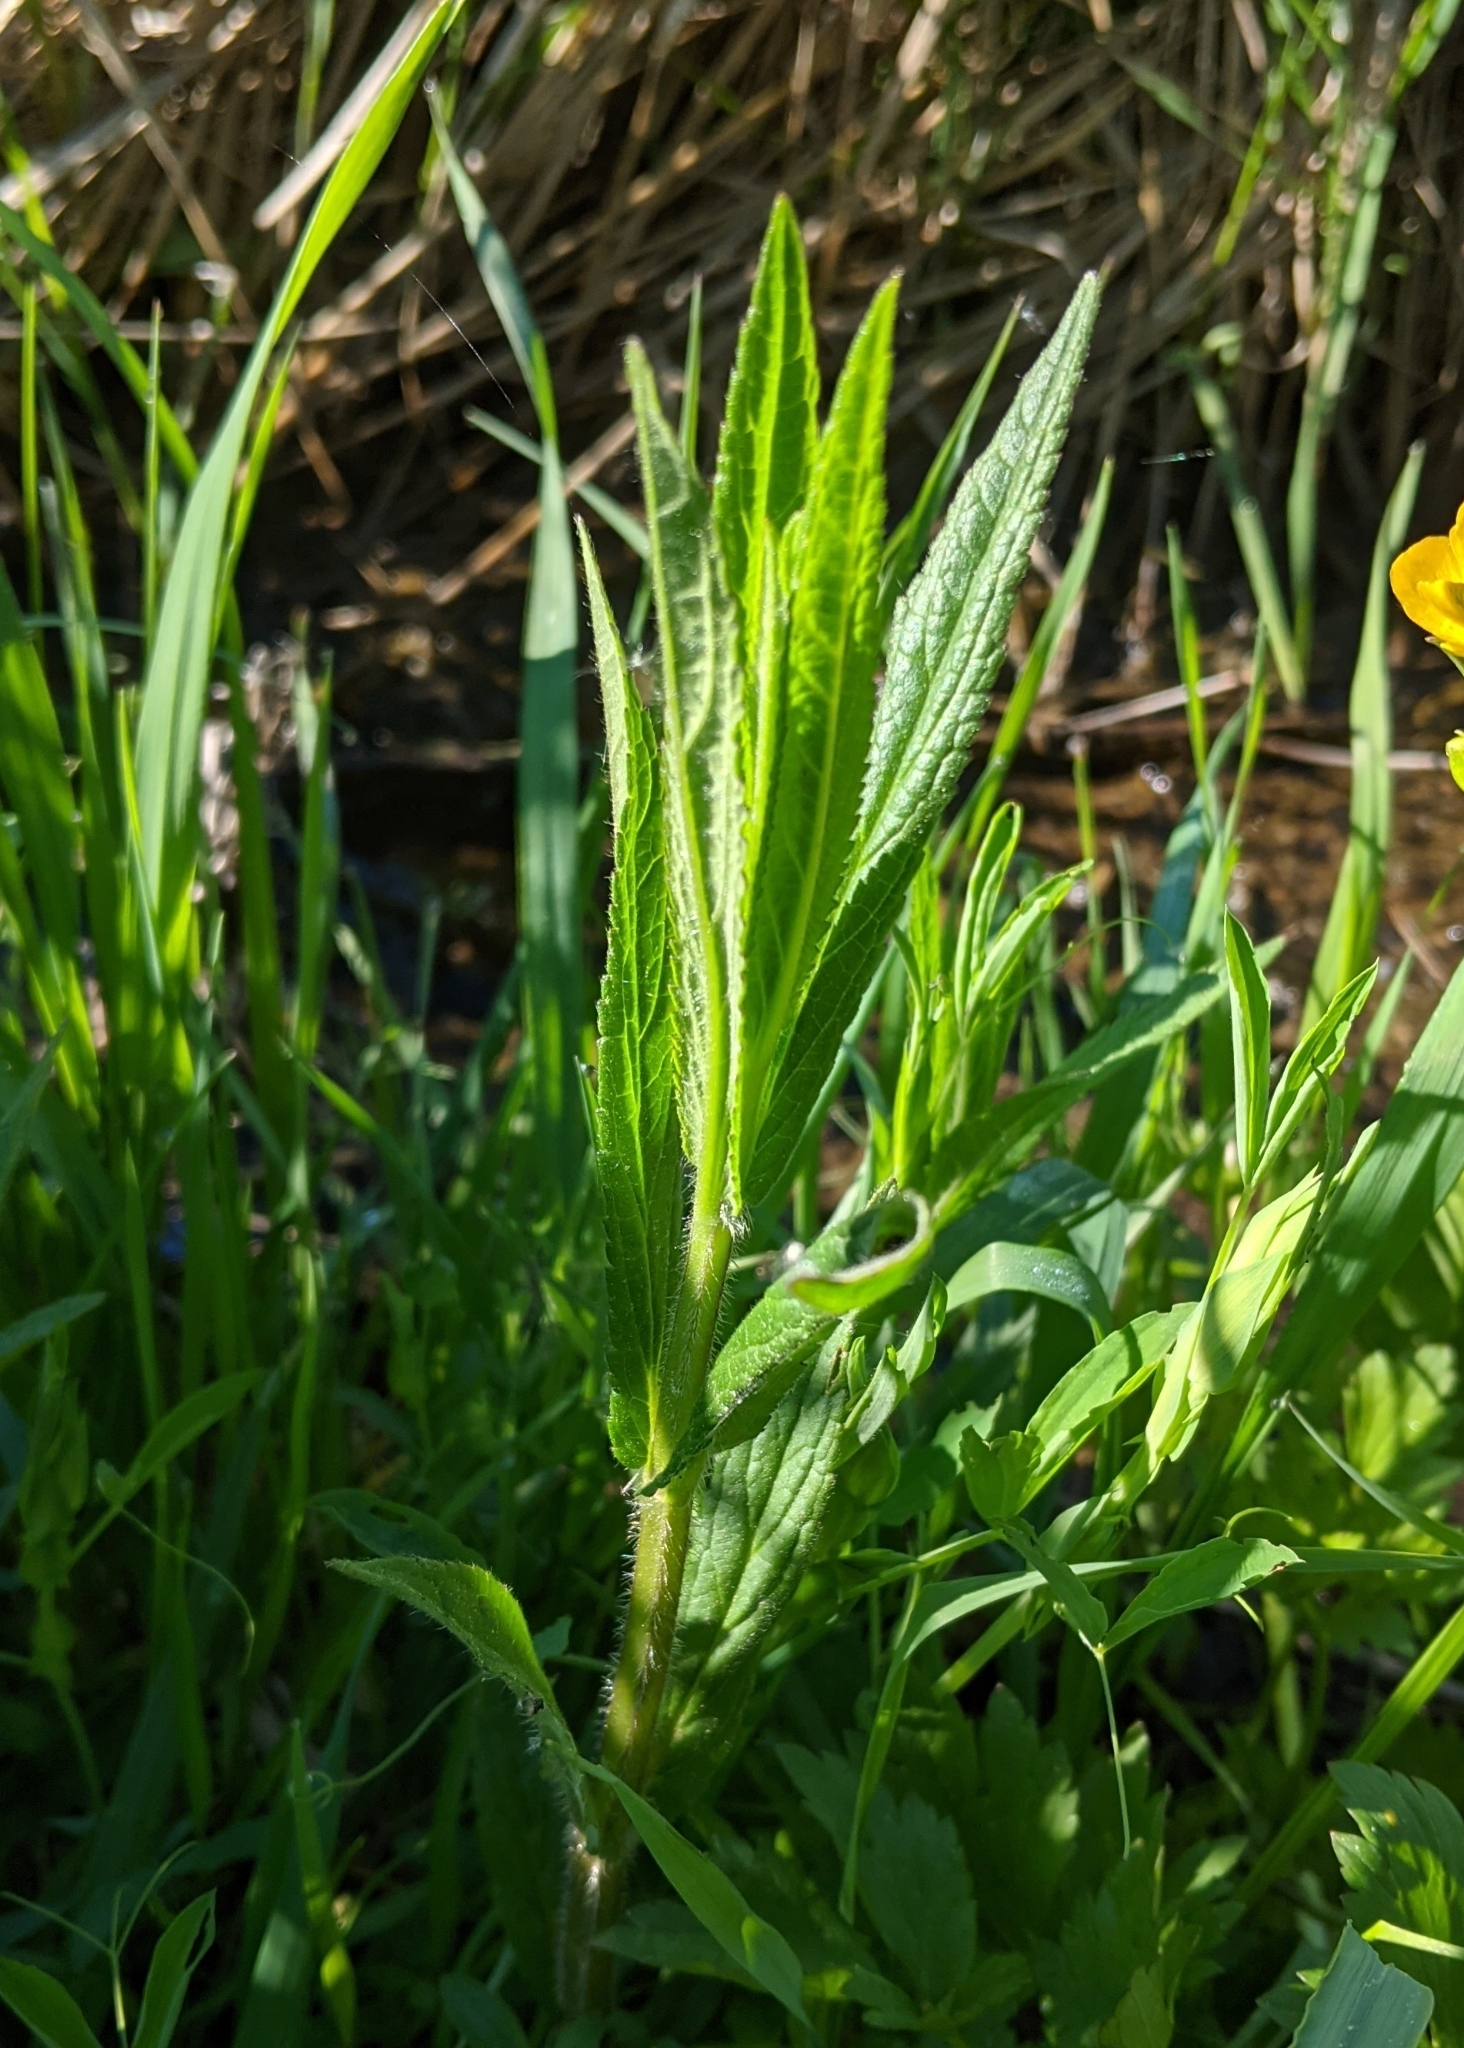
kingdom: Plantae
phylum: Tracheophyta
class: Magnoliopsida
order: Lamiales
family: Lamiaceae
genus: Stachys
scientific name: Stachys palustris
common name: Marsh woundwort
